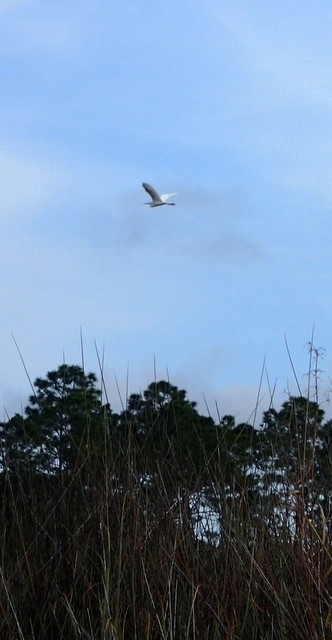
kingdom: Animalia
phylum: Chordata
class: Aves
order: Pelecaniformes
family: Ardeidae
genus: Ardea
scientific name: Ardea alba
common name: Great egret
